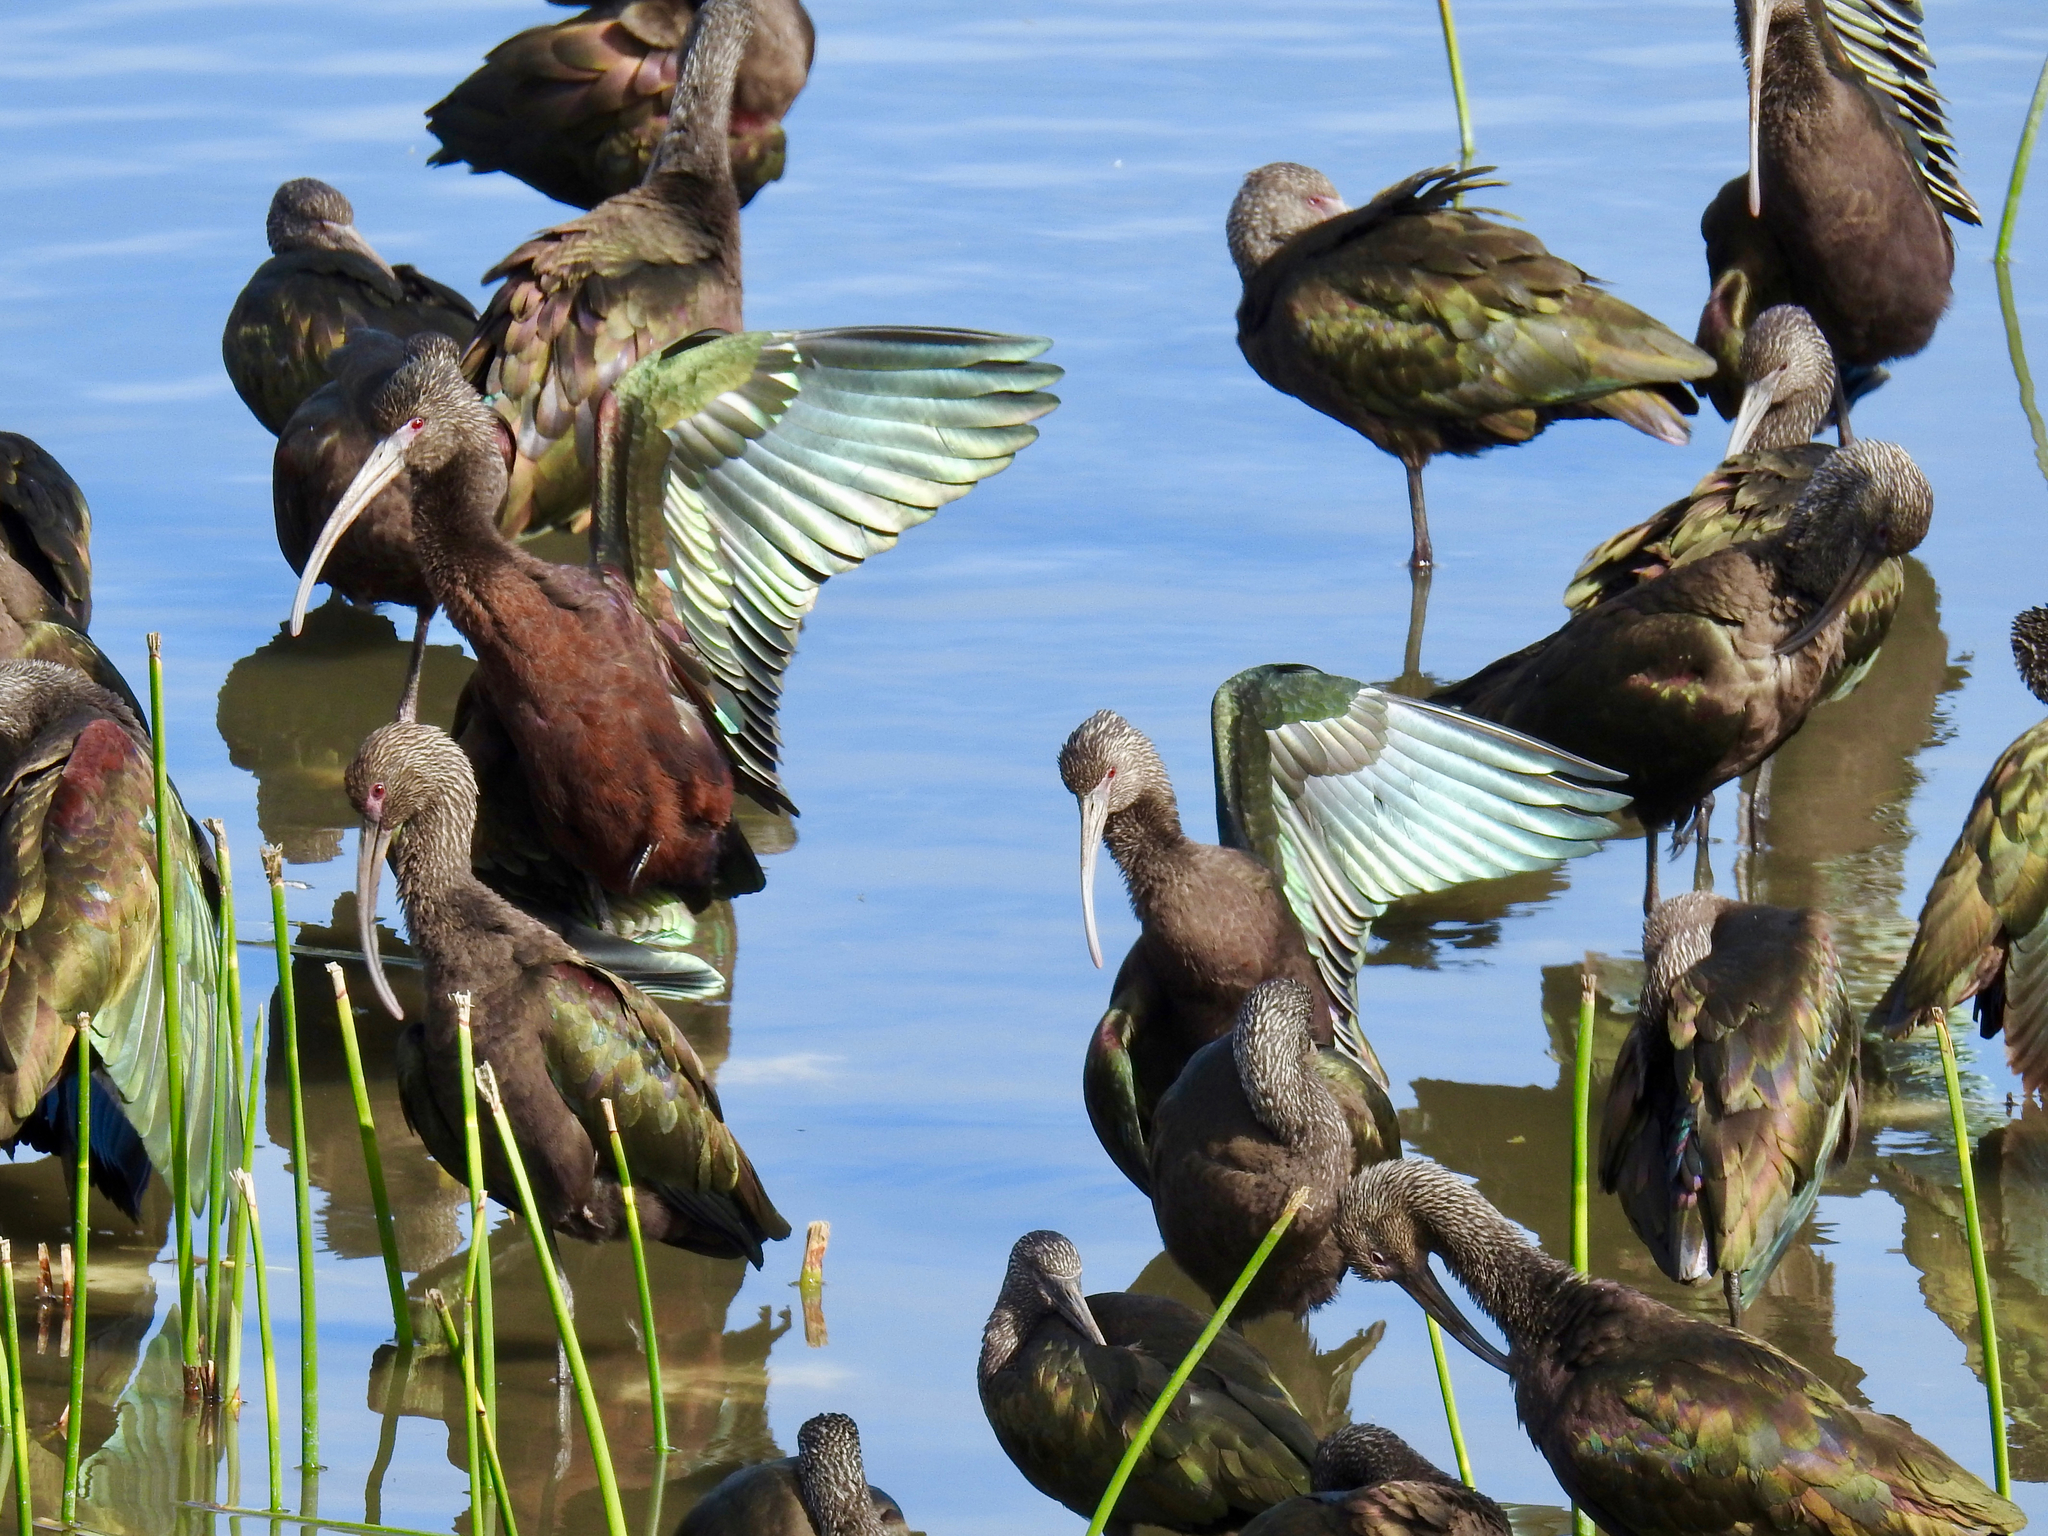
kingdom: Animalia
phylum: Chordata
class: Aves
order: Pelecaniformes
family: Threskiornithidae
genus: Plegadis
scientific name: Plegadis chihi
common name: White-faced ibis
